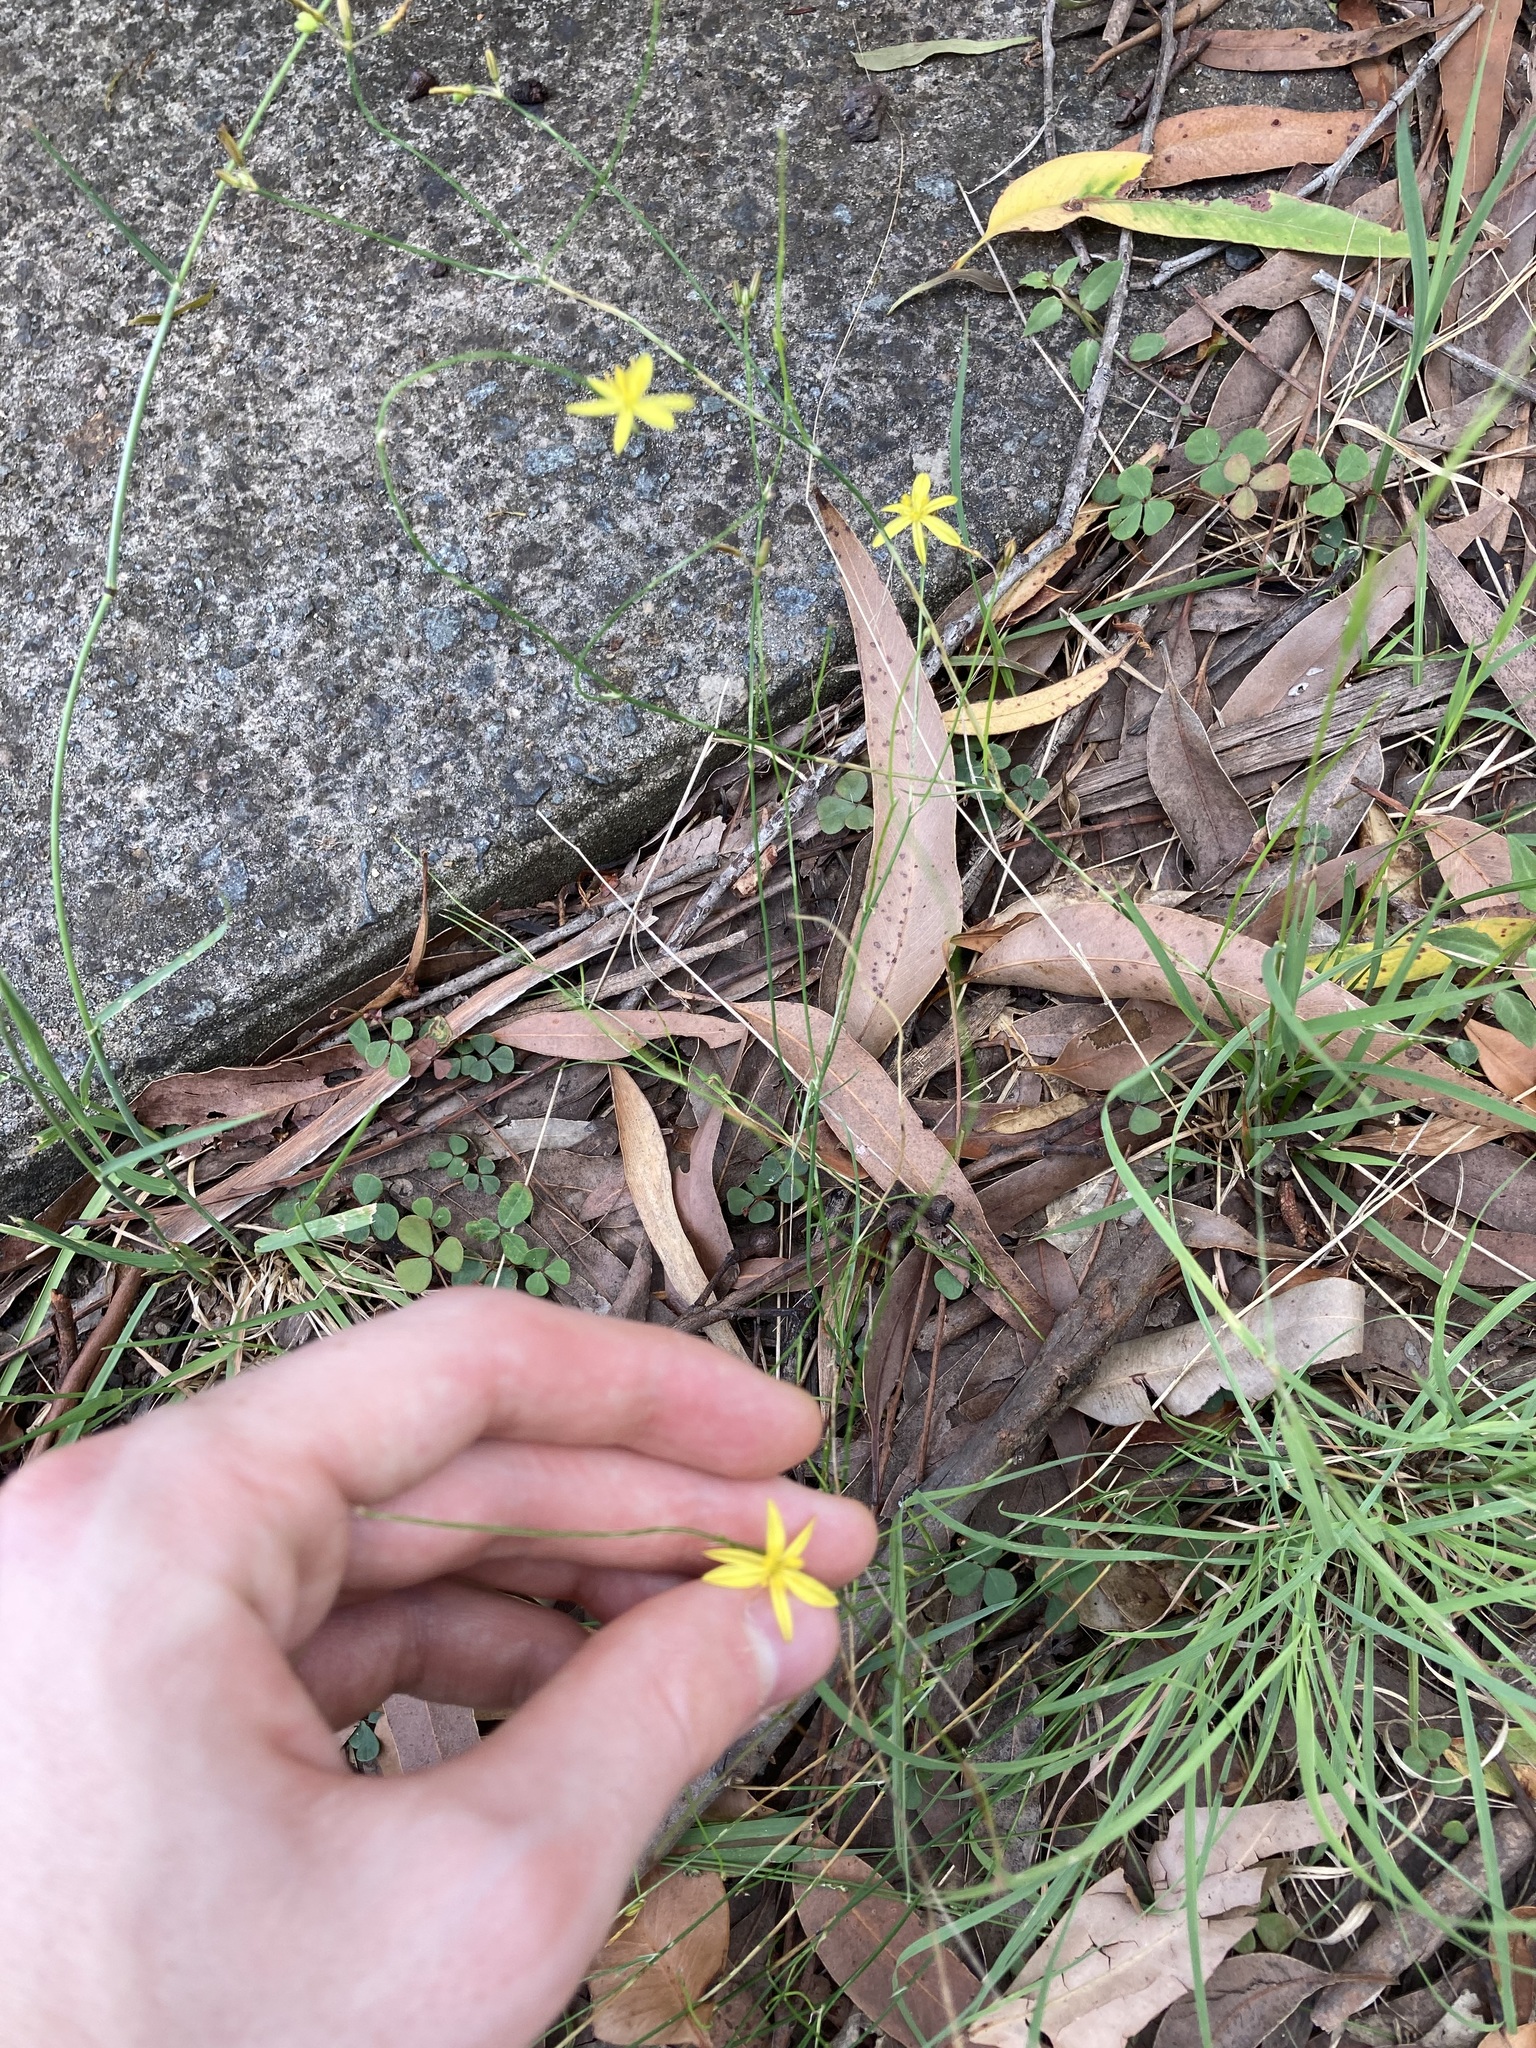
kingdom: Plantae
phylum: Tracheophyta
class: Liliopsida
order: Asparagales
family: Asphodelaceae
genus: Tricoryne
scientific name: Tricoryne elatior
